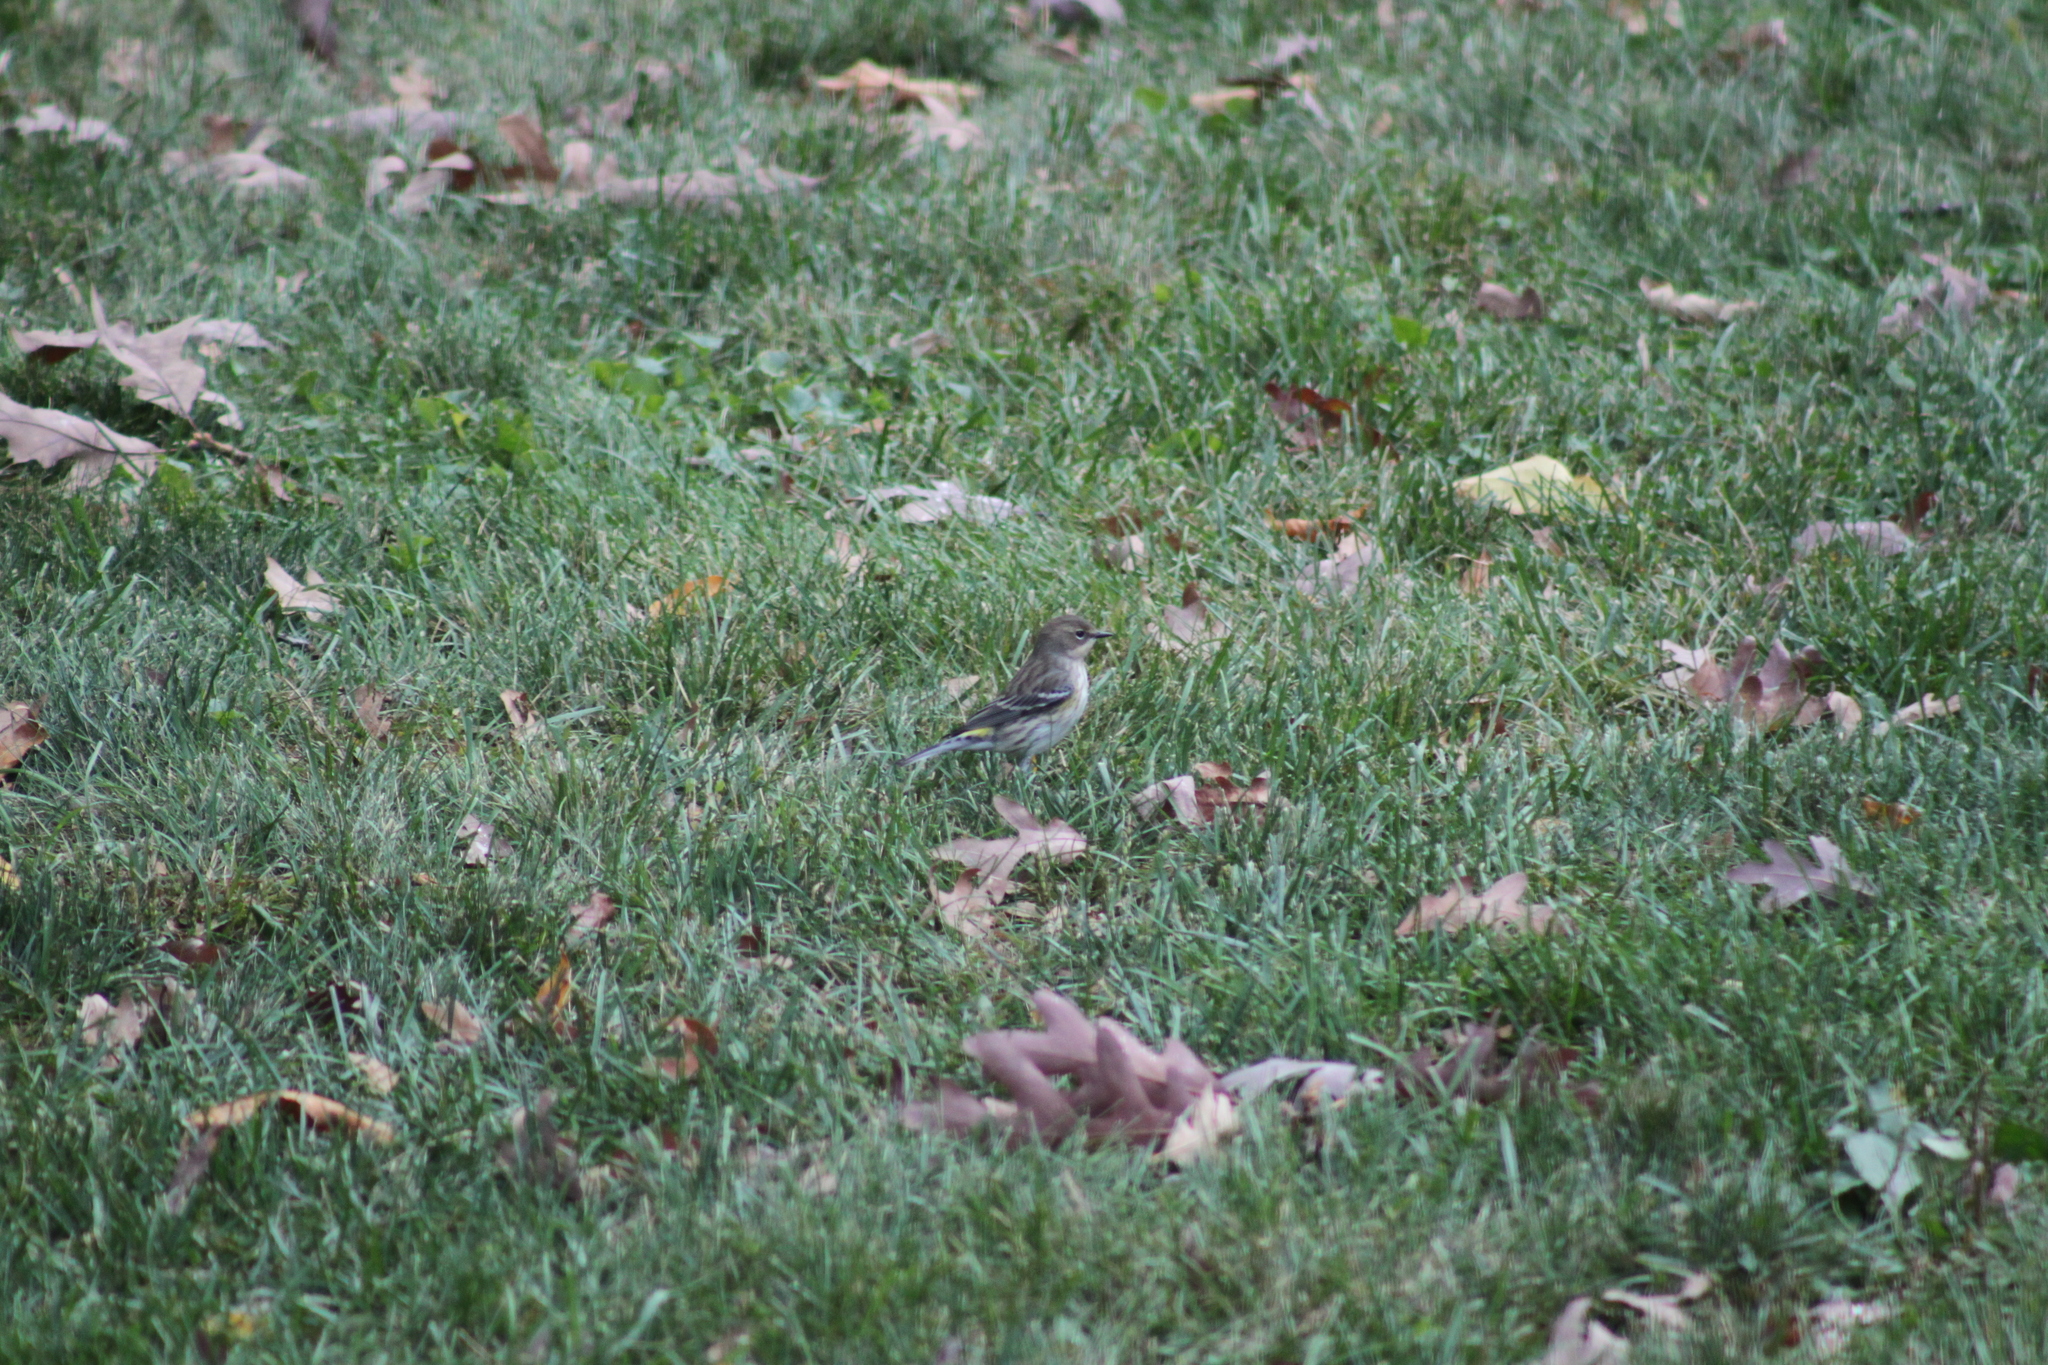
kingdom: Animalia
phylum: Chordata
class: Aves
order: Passeriformes
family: Parulidae
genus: Setophaga
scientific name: Setophaga coronata
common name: Myrtle warbler
